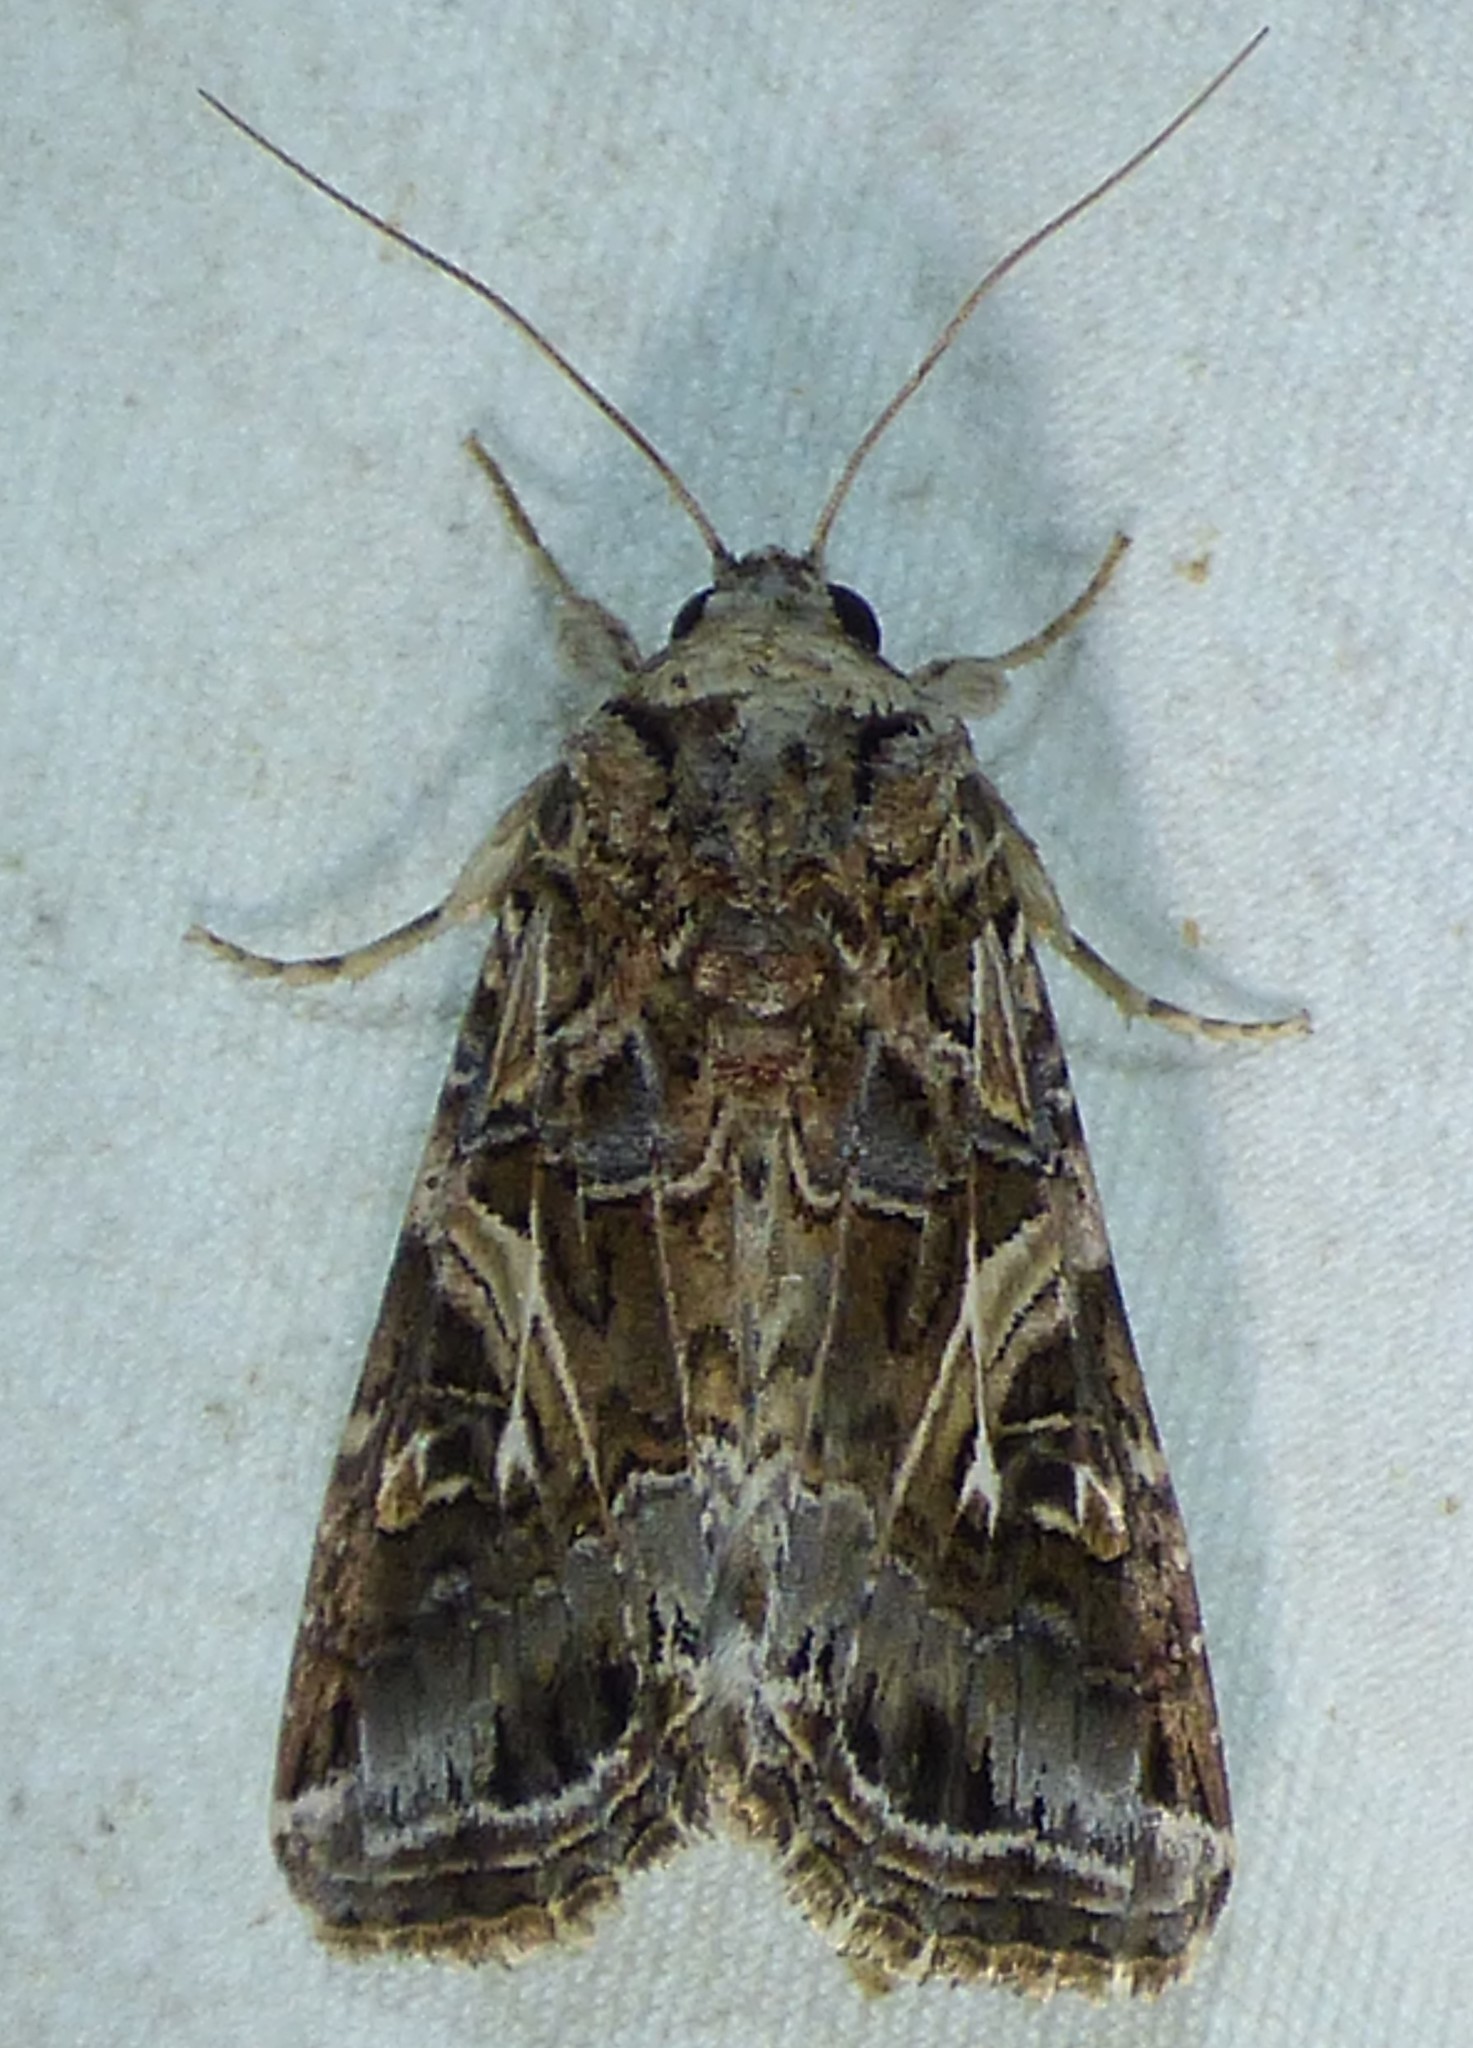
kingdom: Animalia
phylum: Arthropoda
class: Insecta
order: Lepidoptera
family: Noctuidae
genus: Spodoptera
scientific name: Spodoptera ornithogalli
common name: Yellow-striped armyworm
